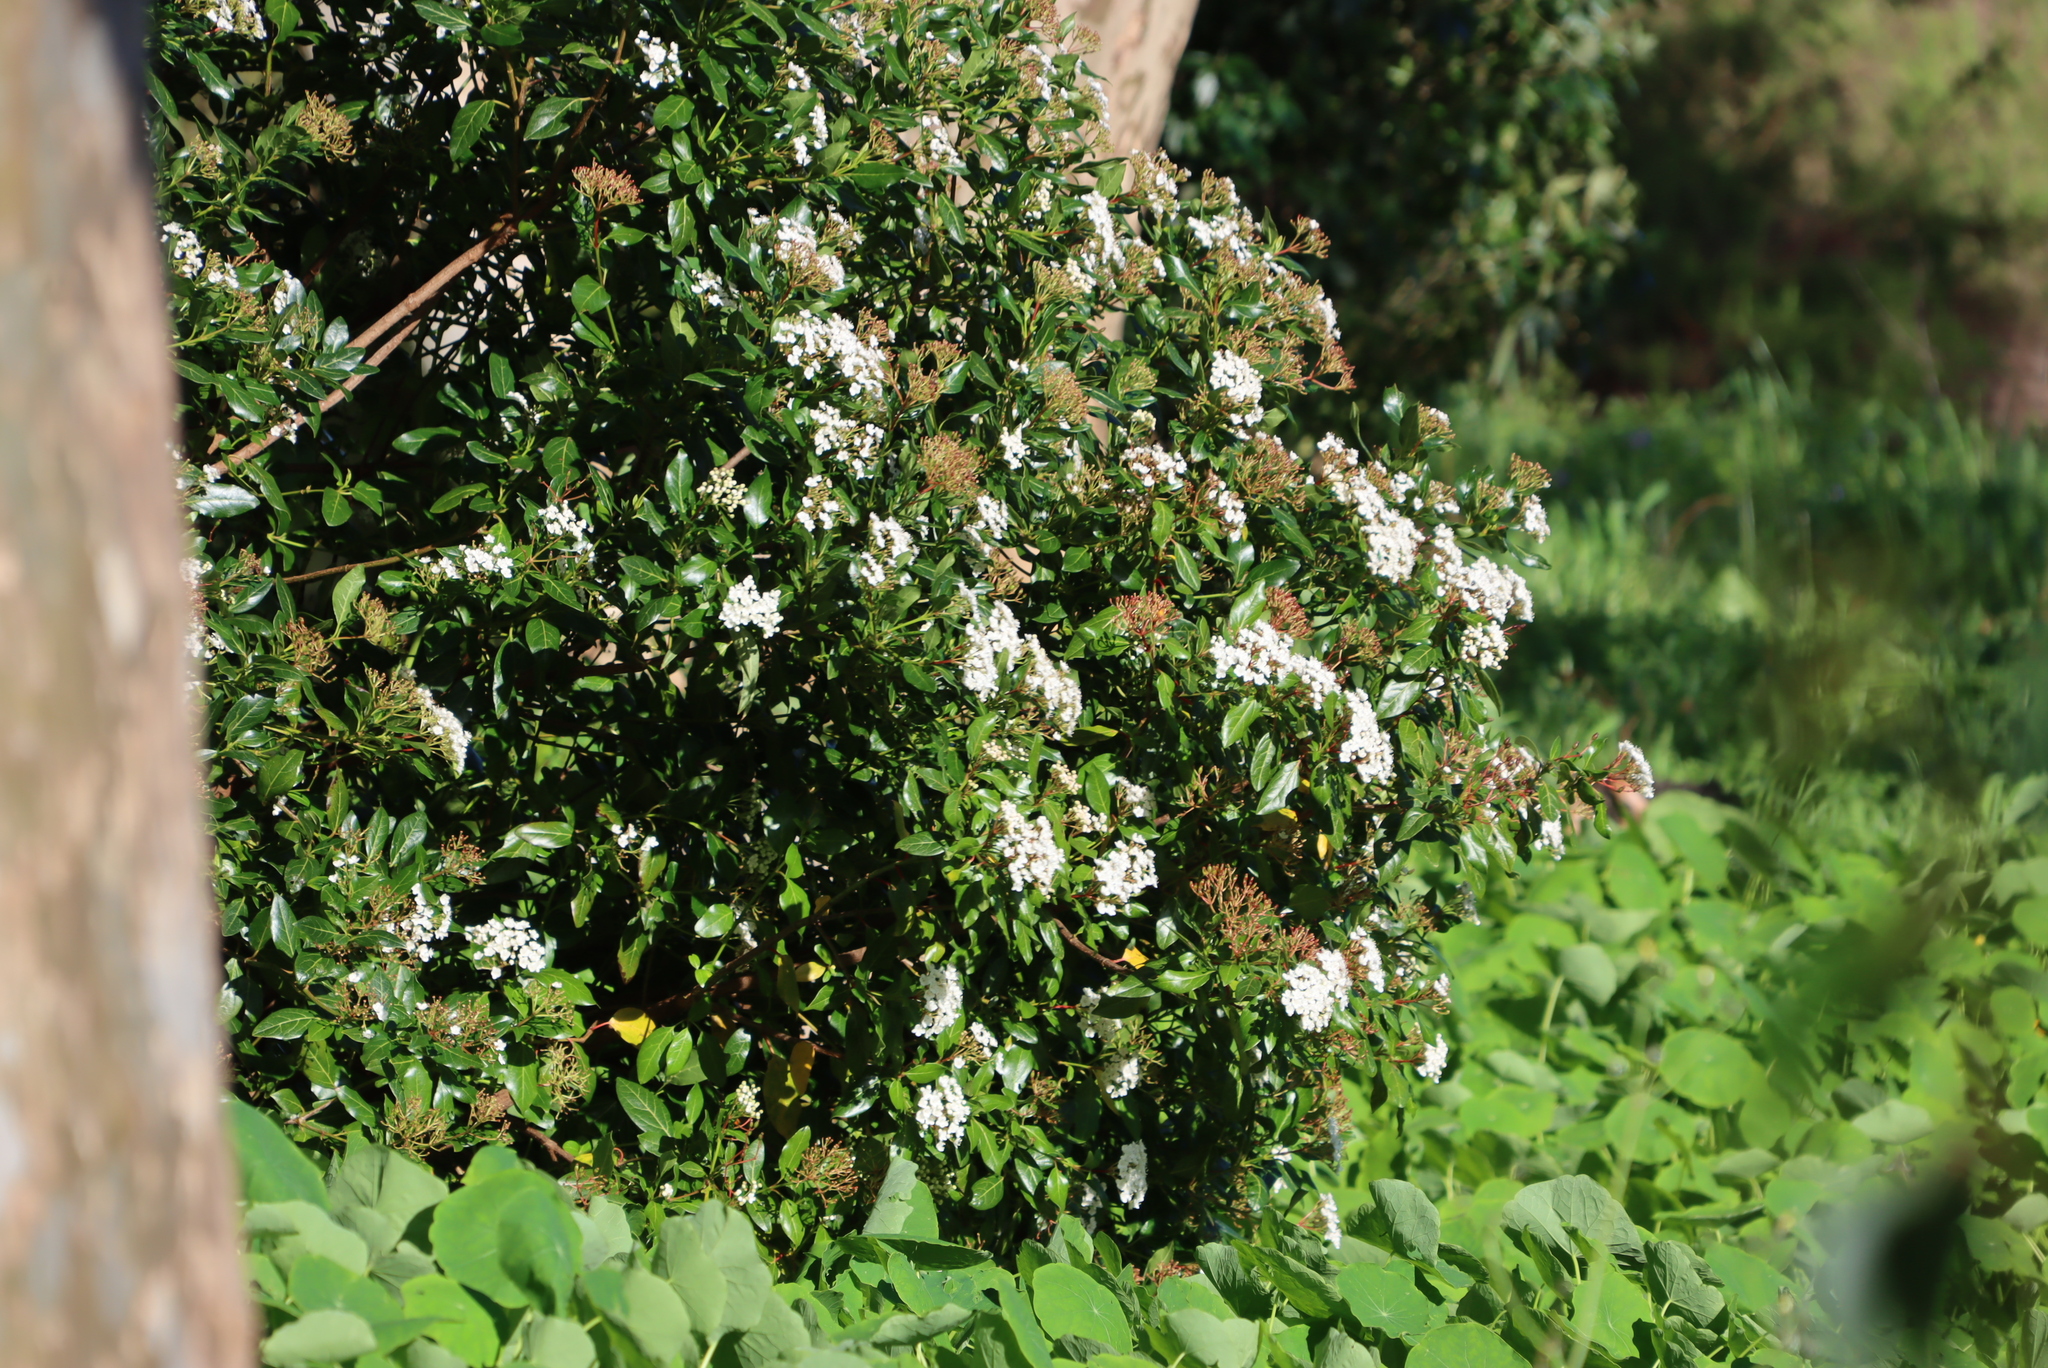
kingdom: Plantae
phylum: Tracheophyta
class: Magnoliopsida
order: Dipsacales
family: Viburnaceae
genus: Viburnum
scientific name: Viburnum tinus
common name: Laurustinus
